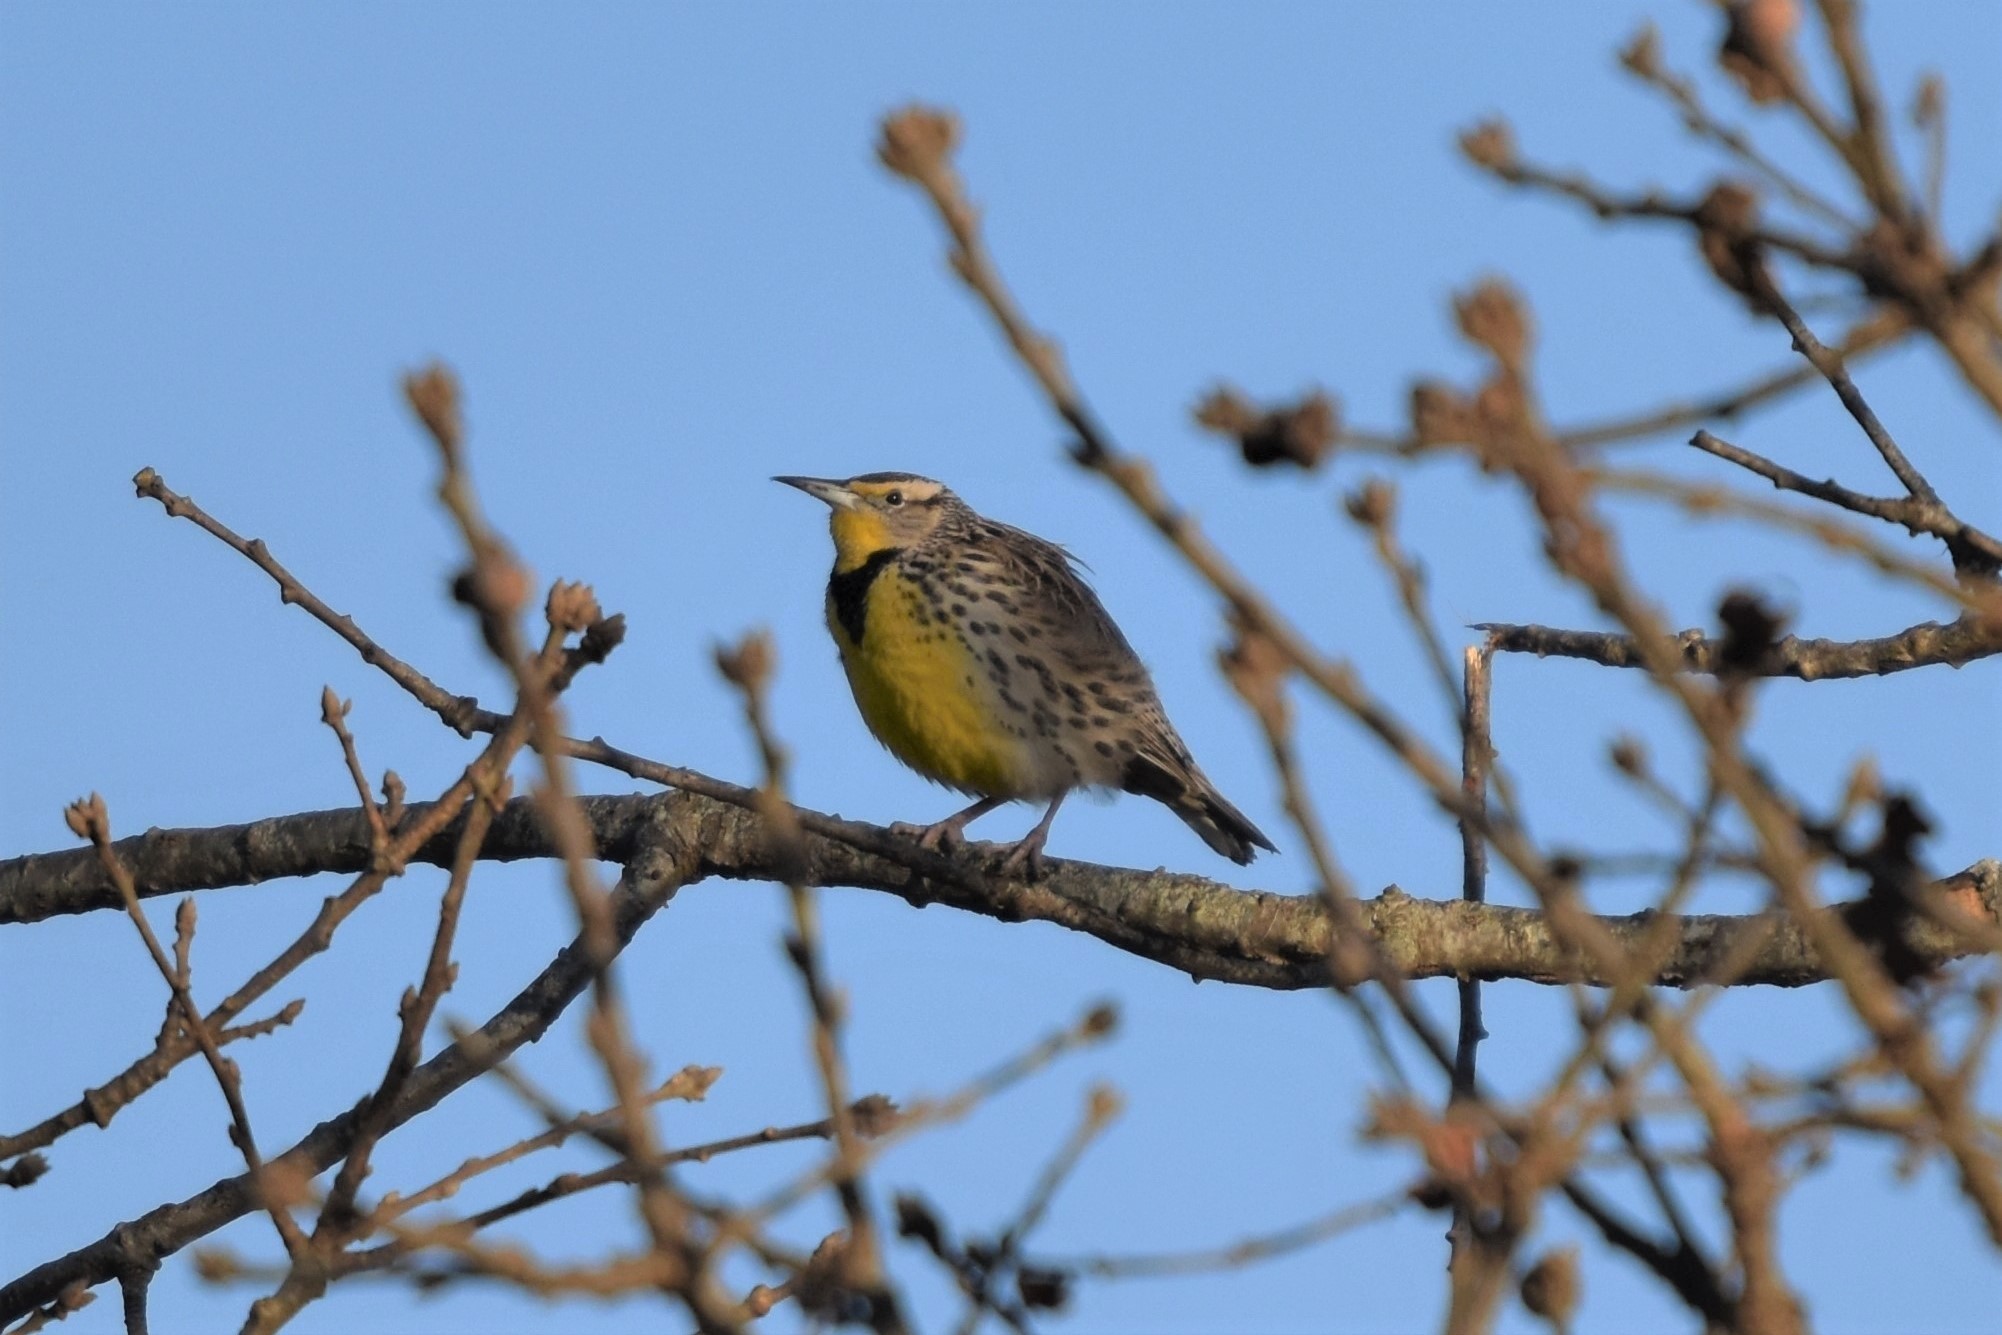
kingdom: Animalia
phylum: Chordata
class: Aves
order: Passeriformes
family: Icteridae
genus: Sturnella
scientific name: Sturnella neglecta
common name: Western meadowlark
